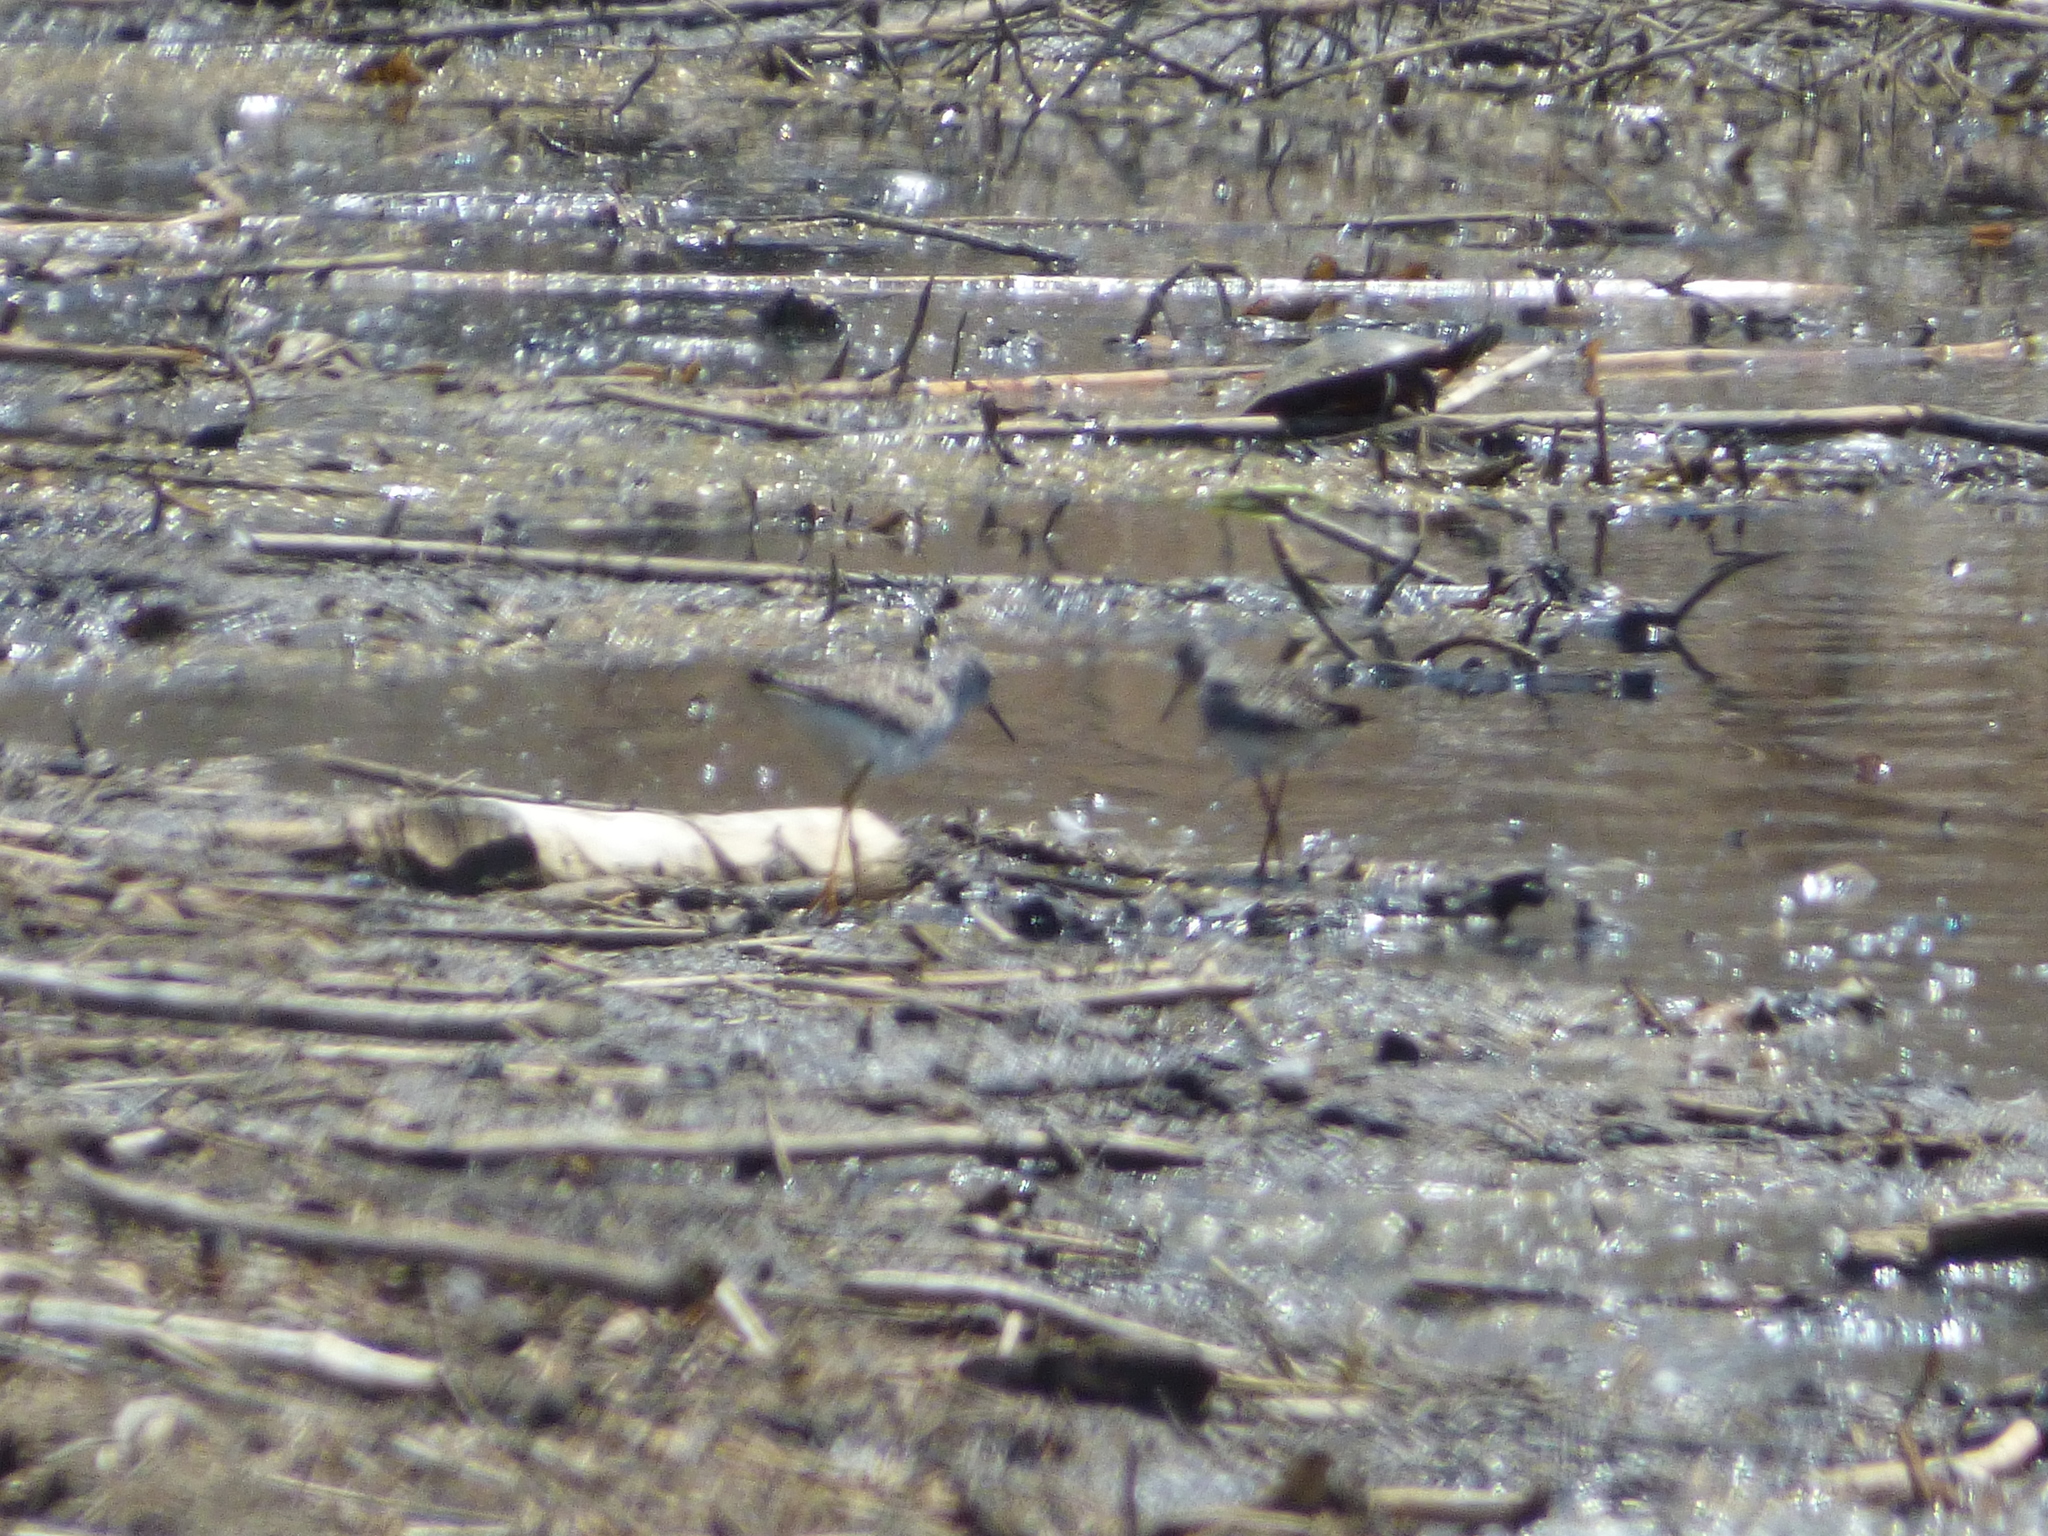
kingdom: Animalia
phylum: Chordata
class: Aves
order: Charadriiformes
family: Scolopacidae
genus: Tringa
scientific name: Tringa flavipes
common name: Lesser yellowlegs
